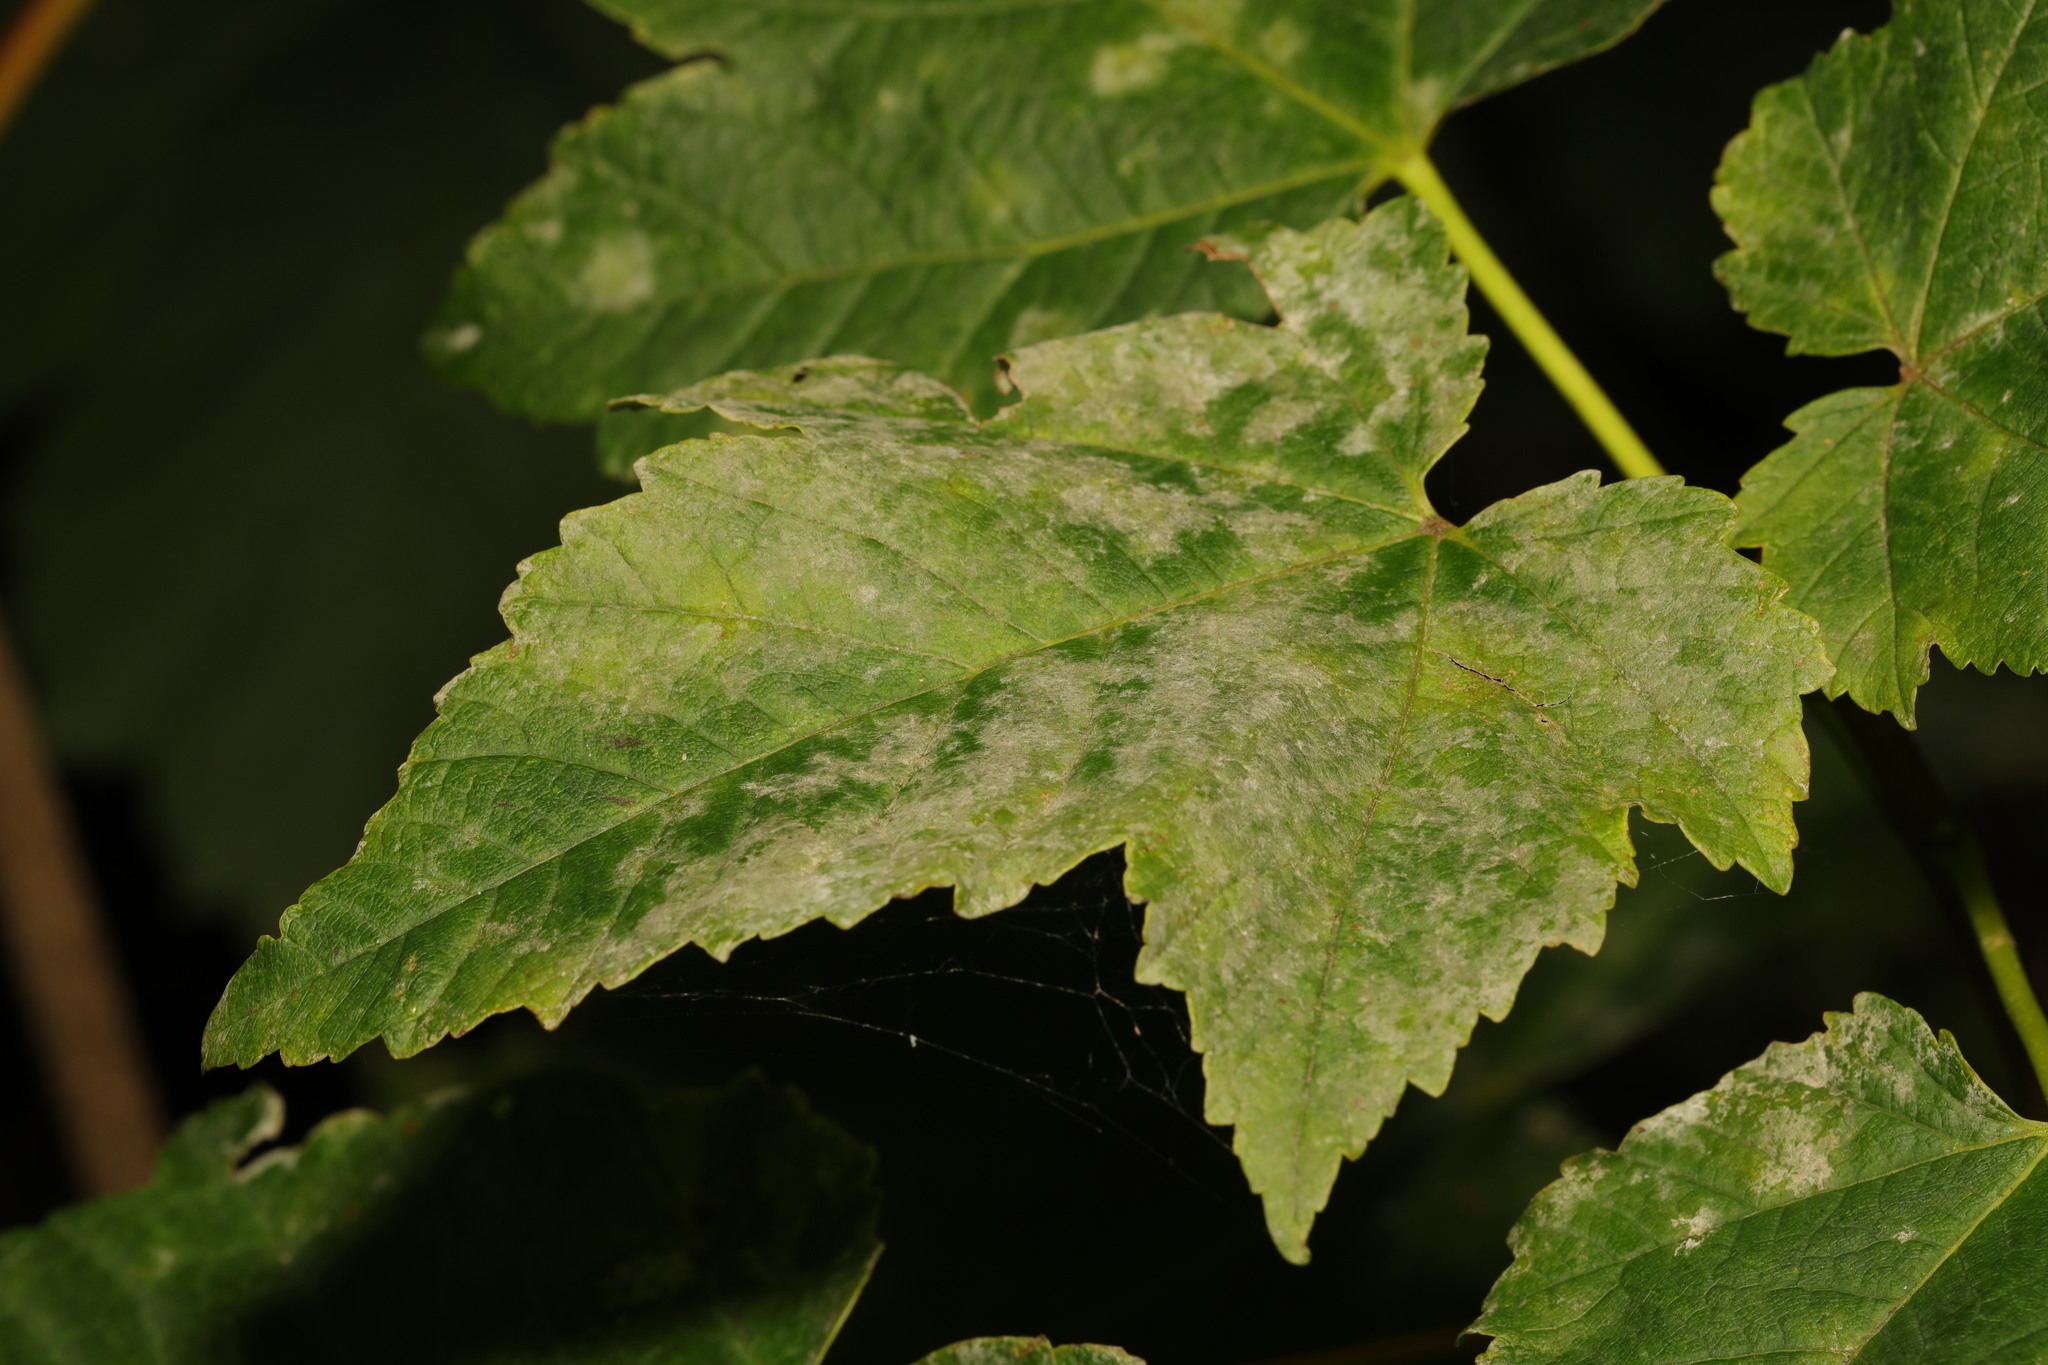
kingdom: Fungi
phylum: Ascomycota
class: Leotiomycetes
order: Helotiales
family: Erysiphaceae
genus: Sawadaea
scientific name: Sawadaea bicornis
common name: Maple mildew
